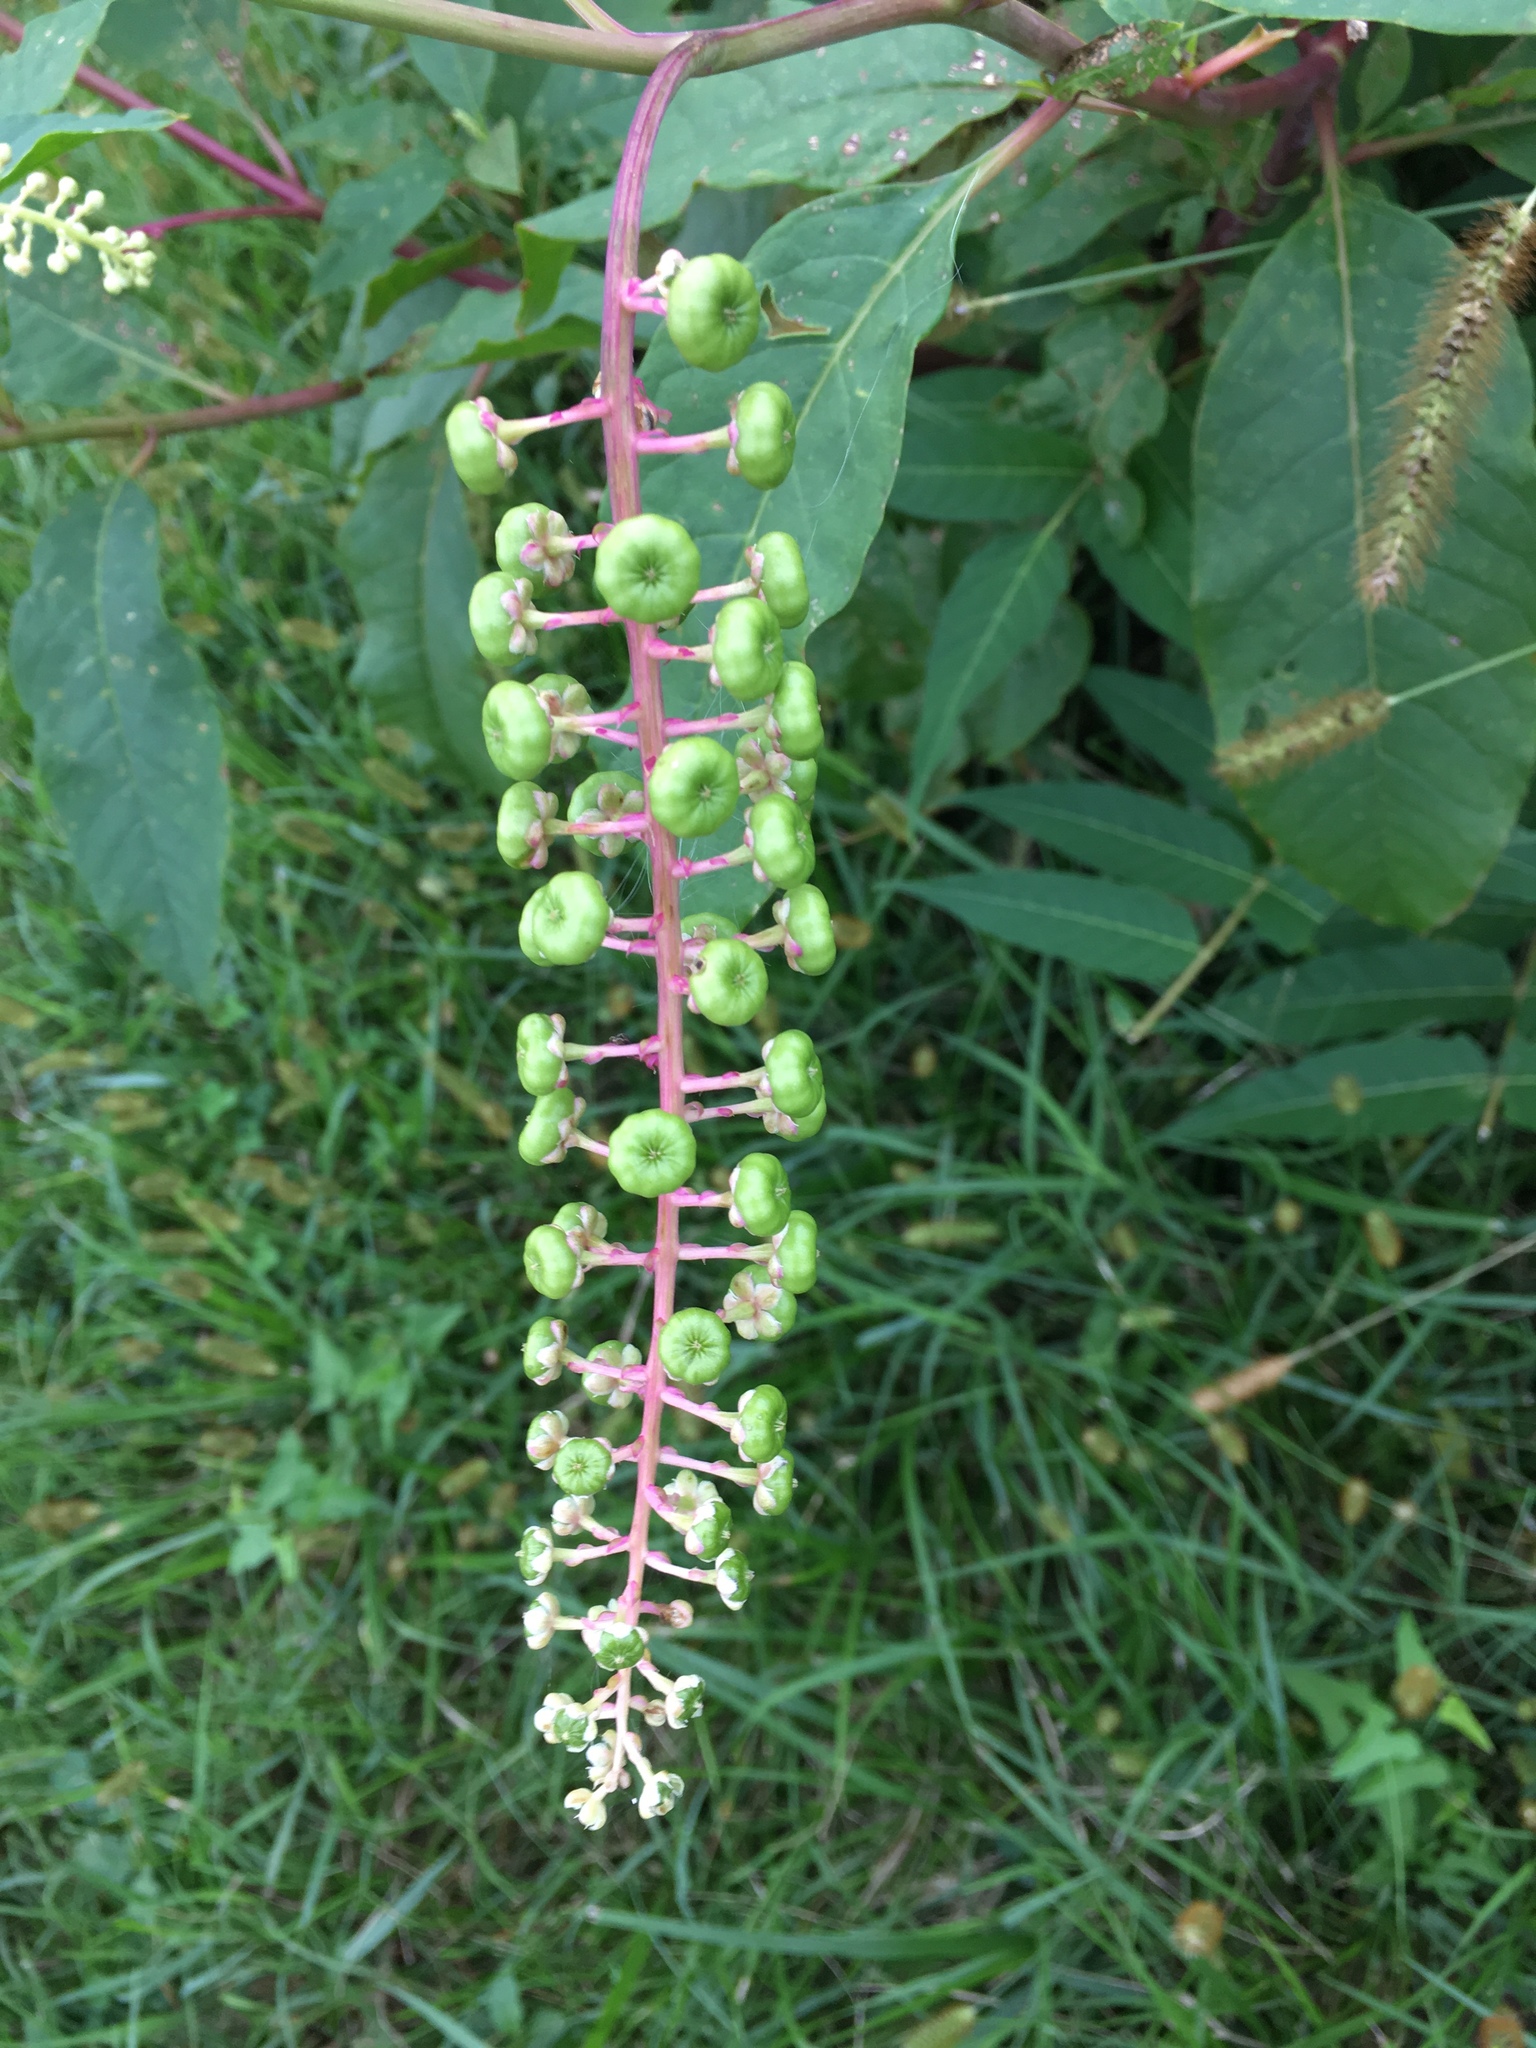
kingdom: Plantae
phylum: Tracheophyta
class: Magnoliopsida
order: Caryophyllales
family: Phytolaccaceae
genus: Phytolacca
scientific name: Phytolacca americana
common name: American pokeweed
